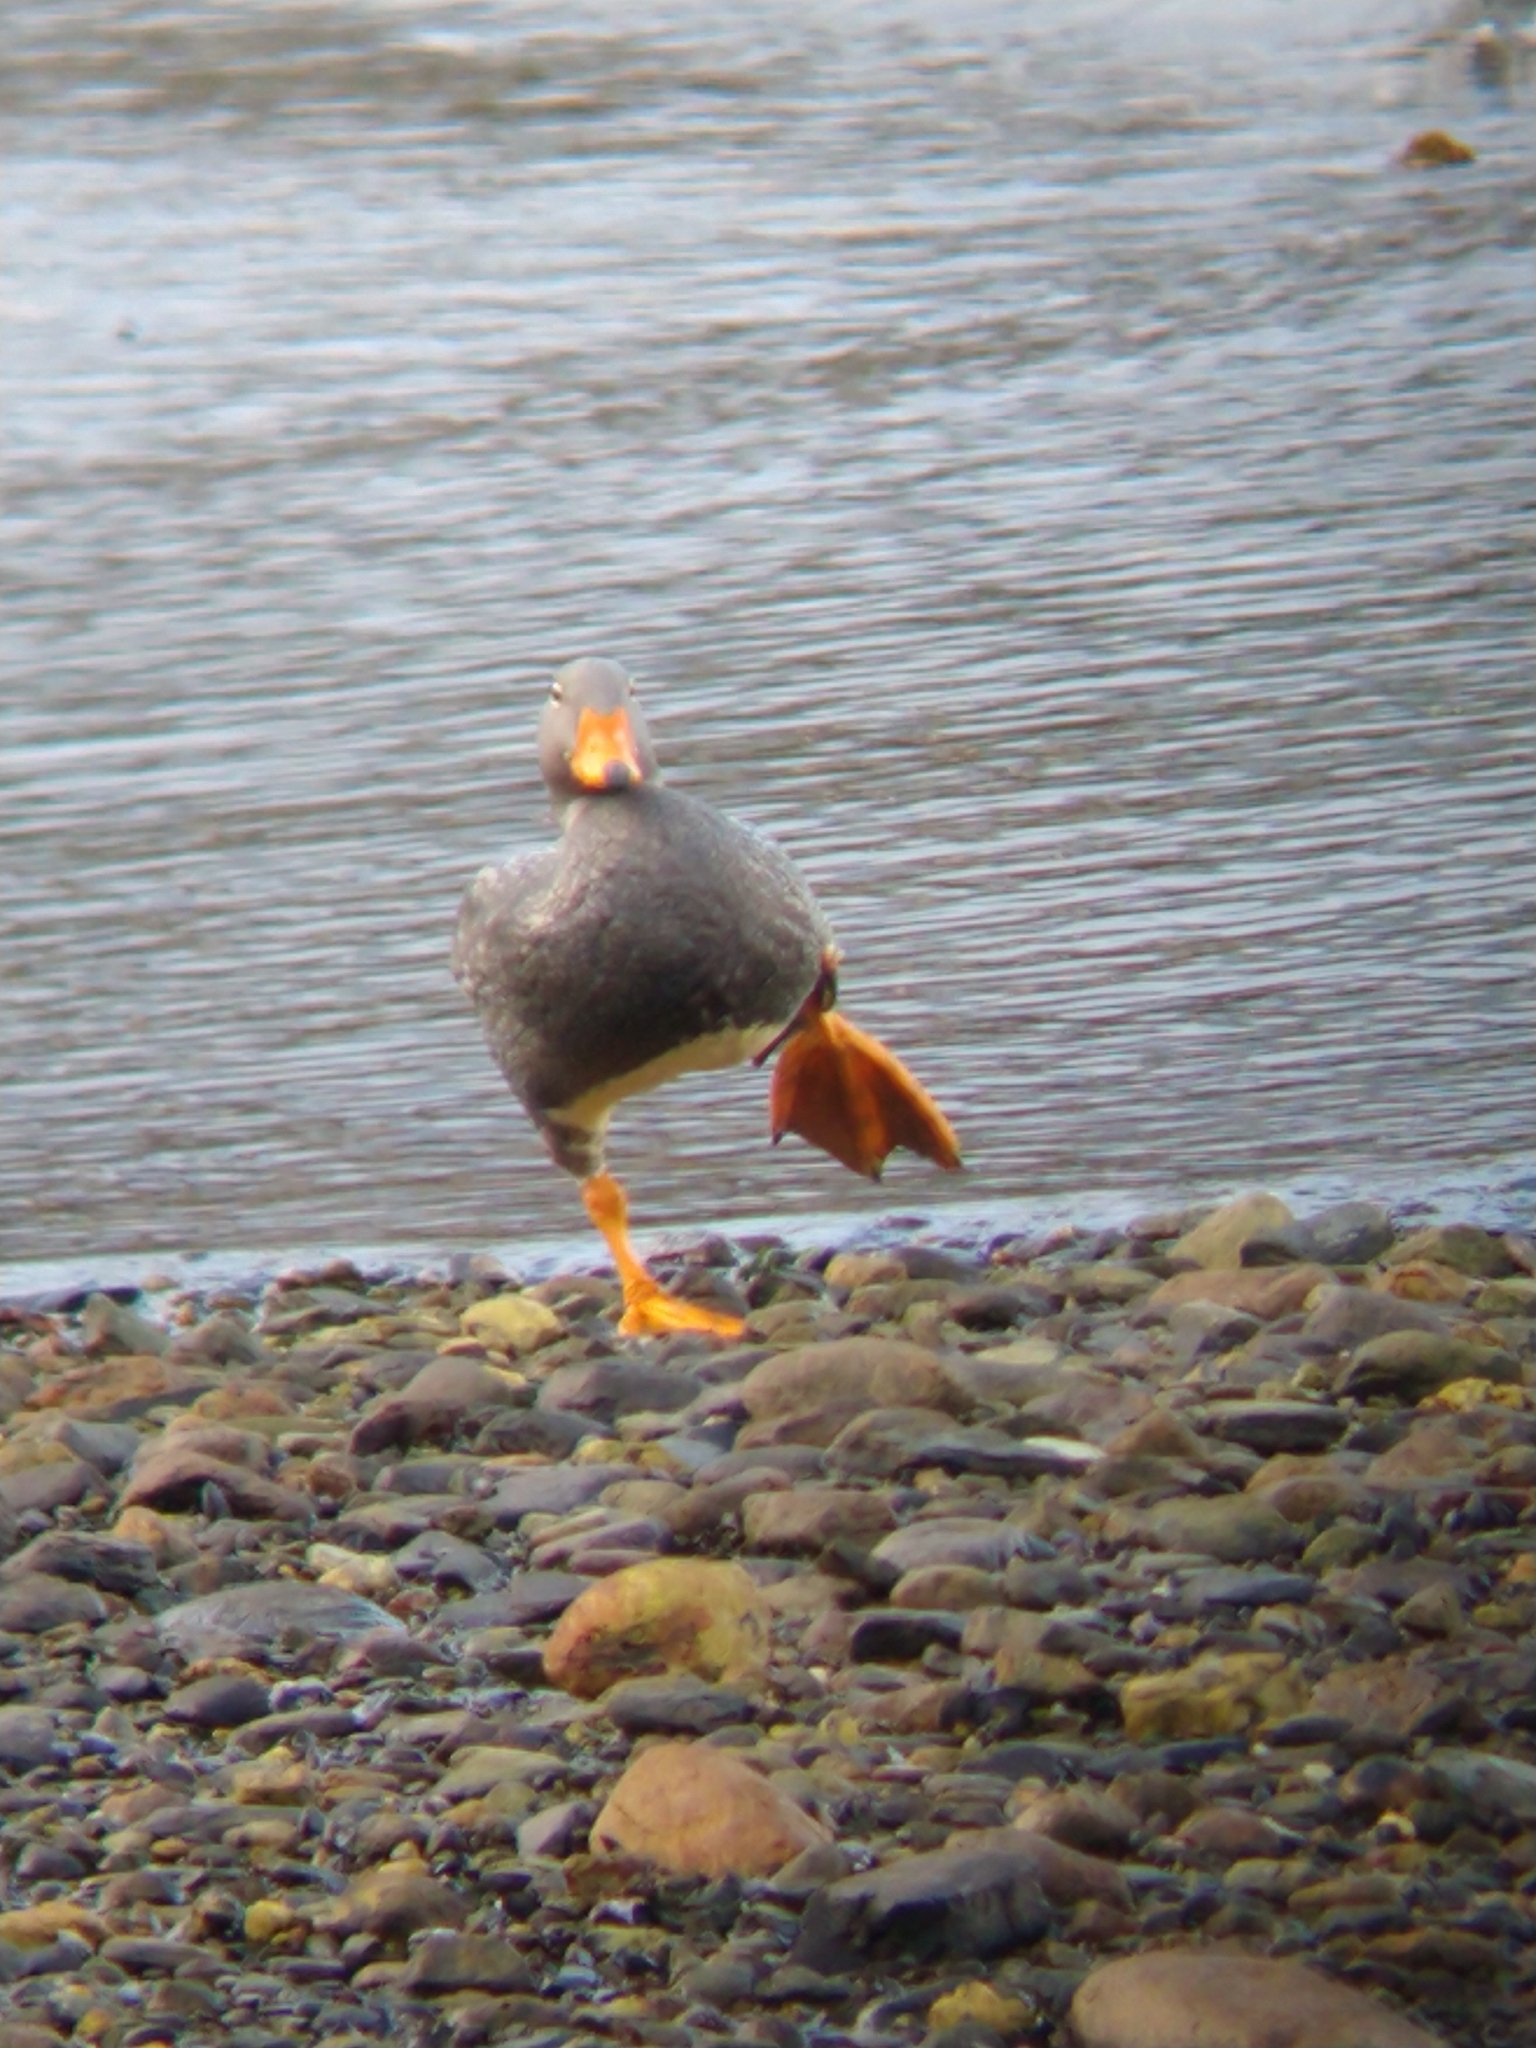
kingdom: Animalia
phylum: Chordata
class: Aves
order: Anseriformes
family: Anatidae
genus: Tachyeres
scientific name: Tachyeres pteneres
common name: Fuegian steamer duck
